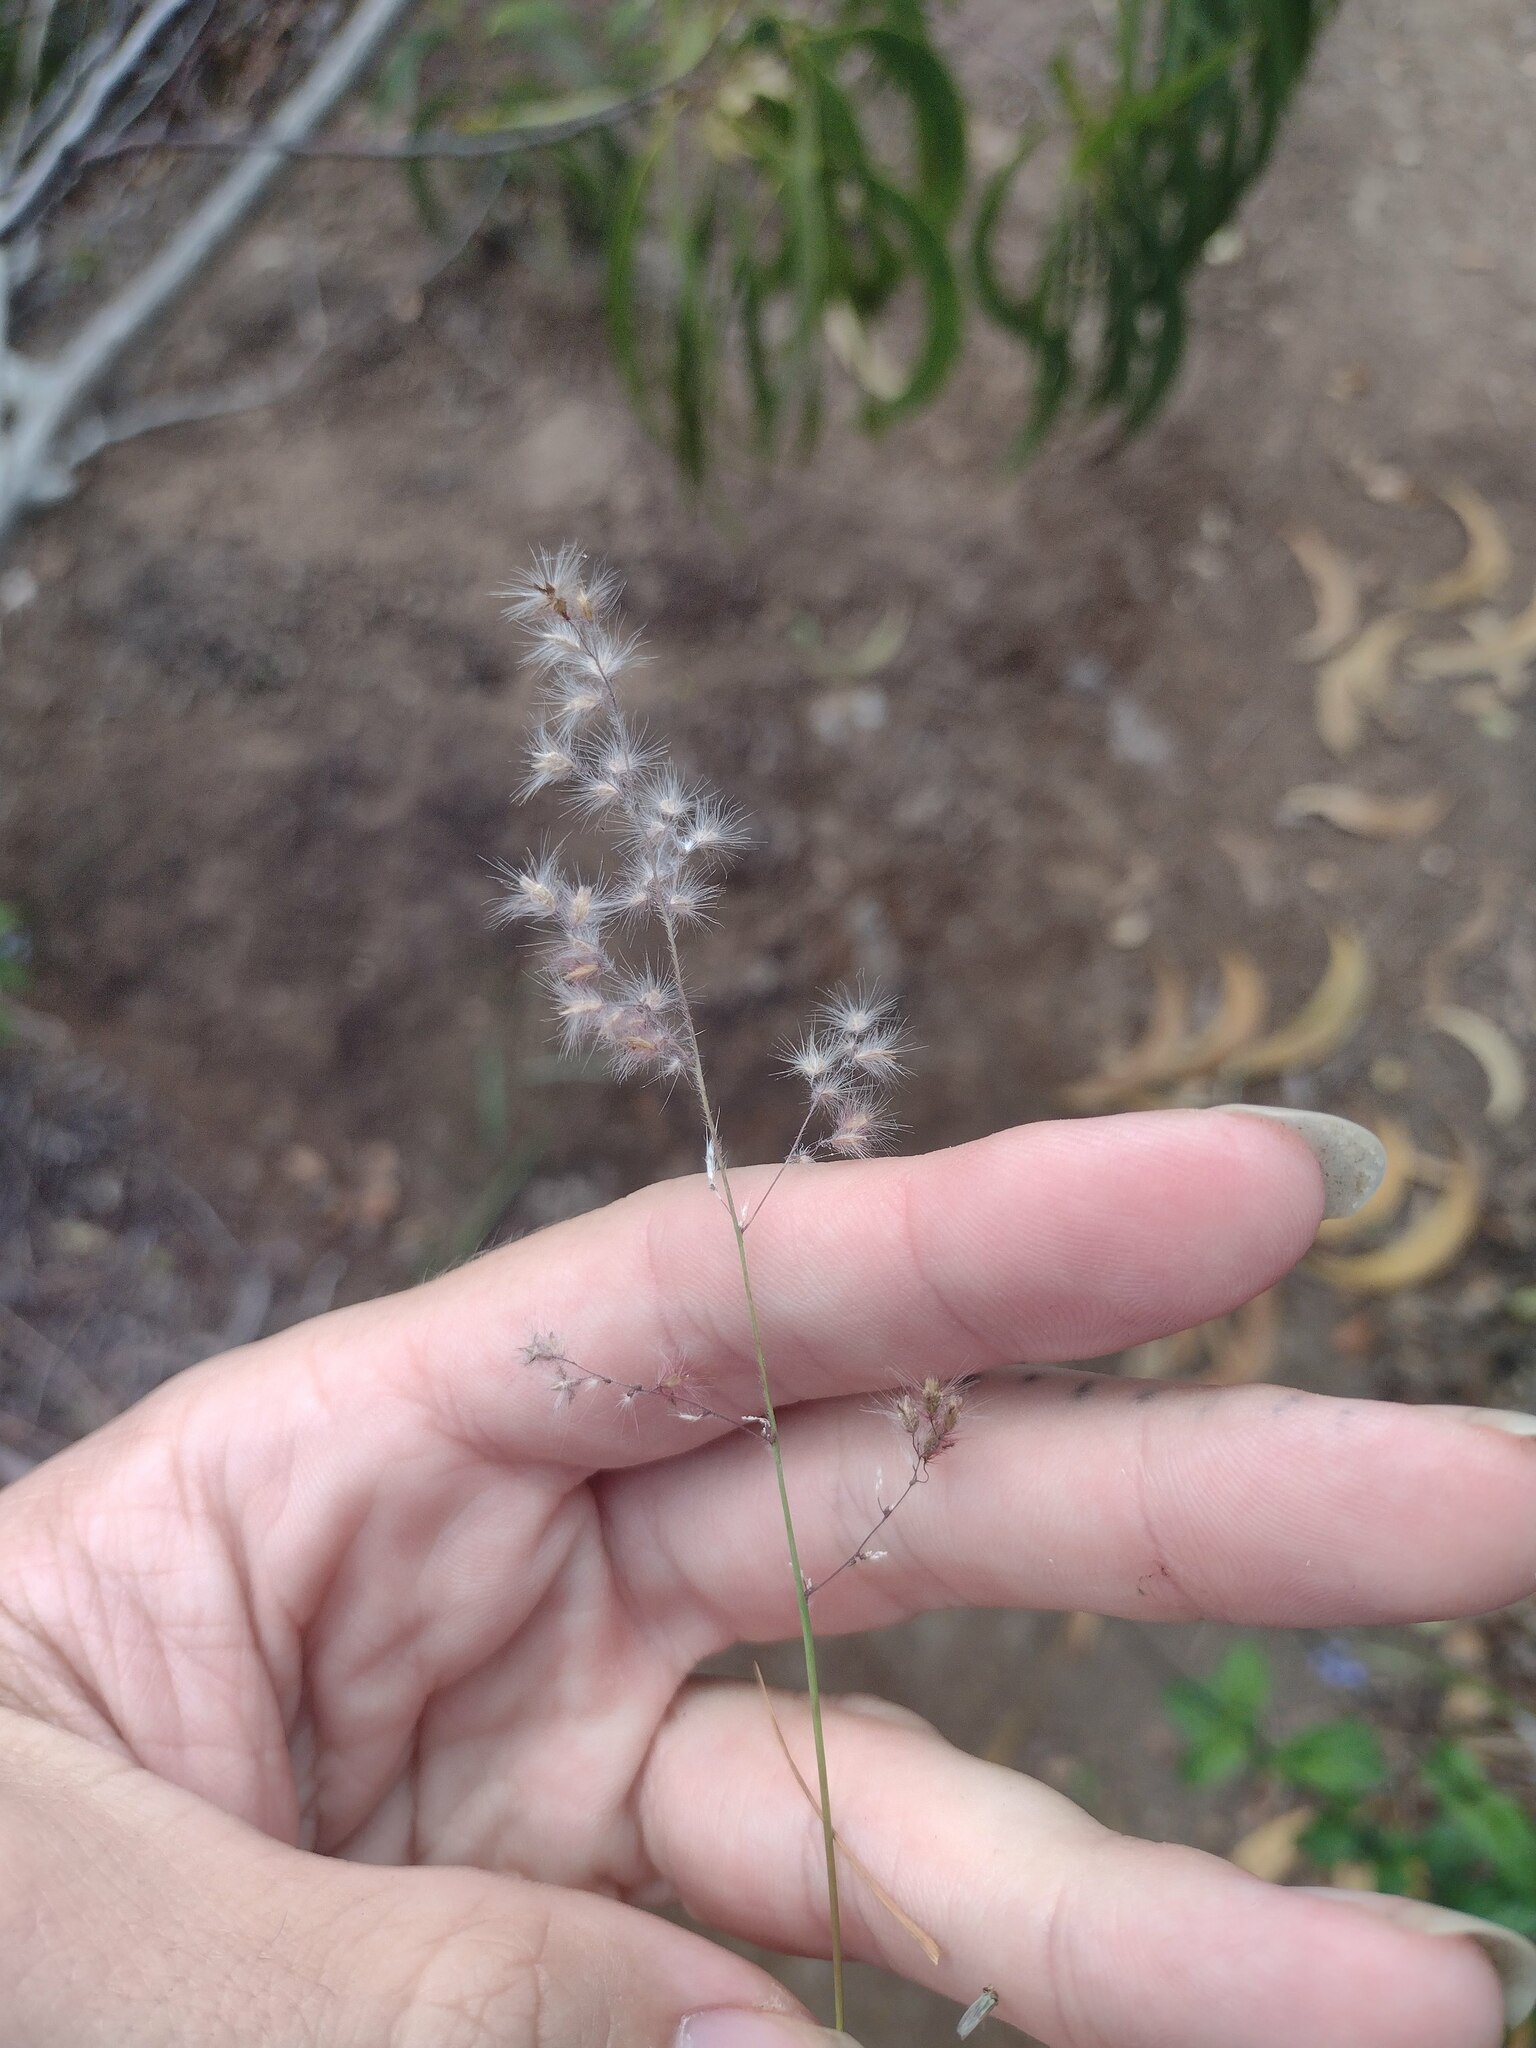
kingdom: Plantae
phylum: Tracheophyta
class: Liliopsida
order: Poales
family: Poaceae
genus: Melinis
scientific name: Melinis repens
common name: Rose natal grass
